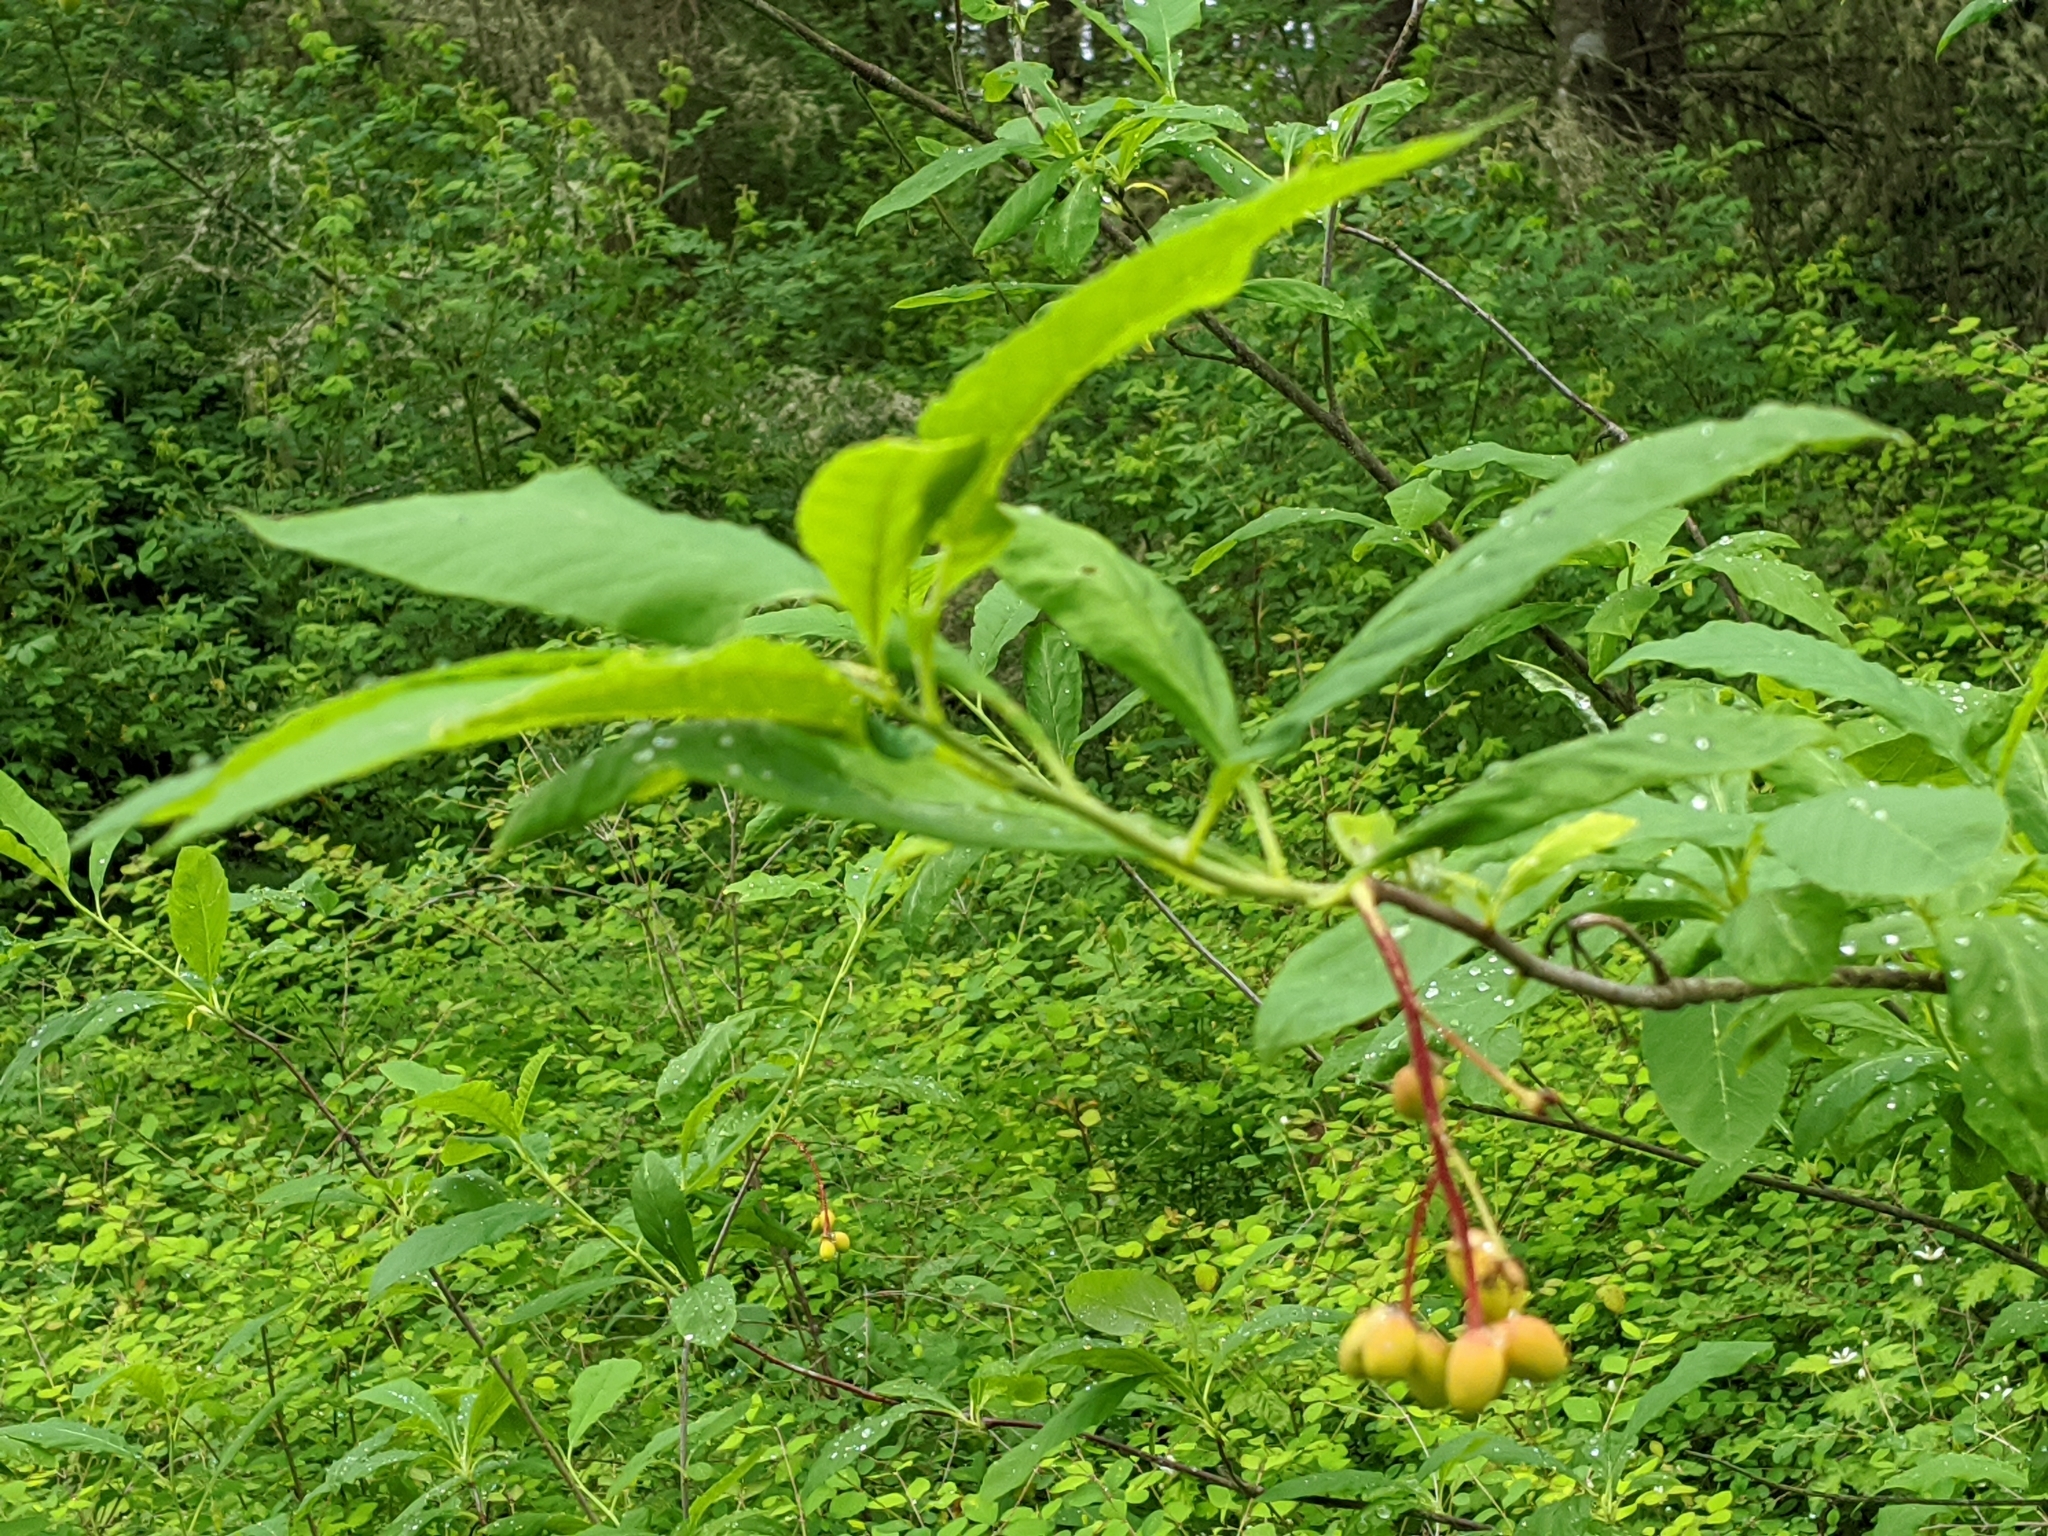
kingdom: Plantae
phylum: Tracheophyta
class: Magnoliopsida
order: Rosales
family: Rosaceae
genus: Oemleria
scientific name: Oemleria cerasiformis
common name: Osoberry
